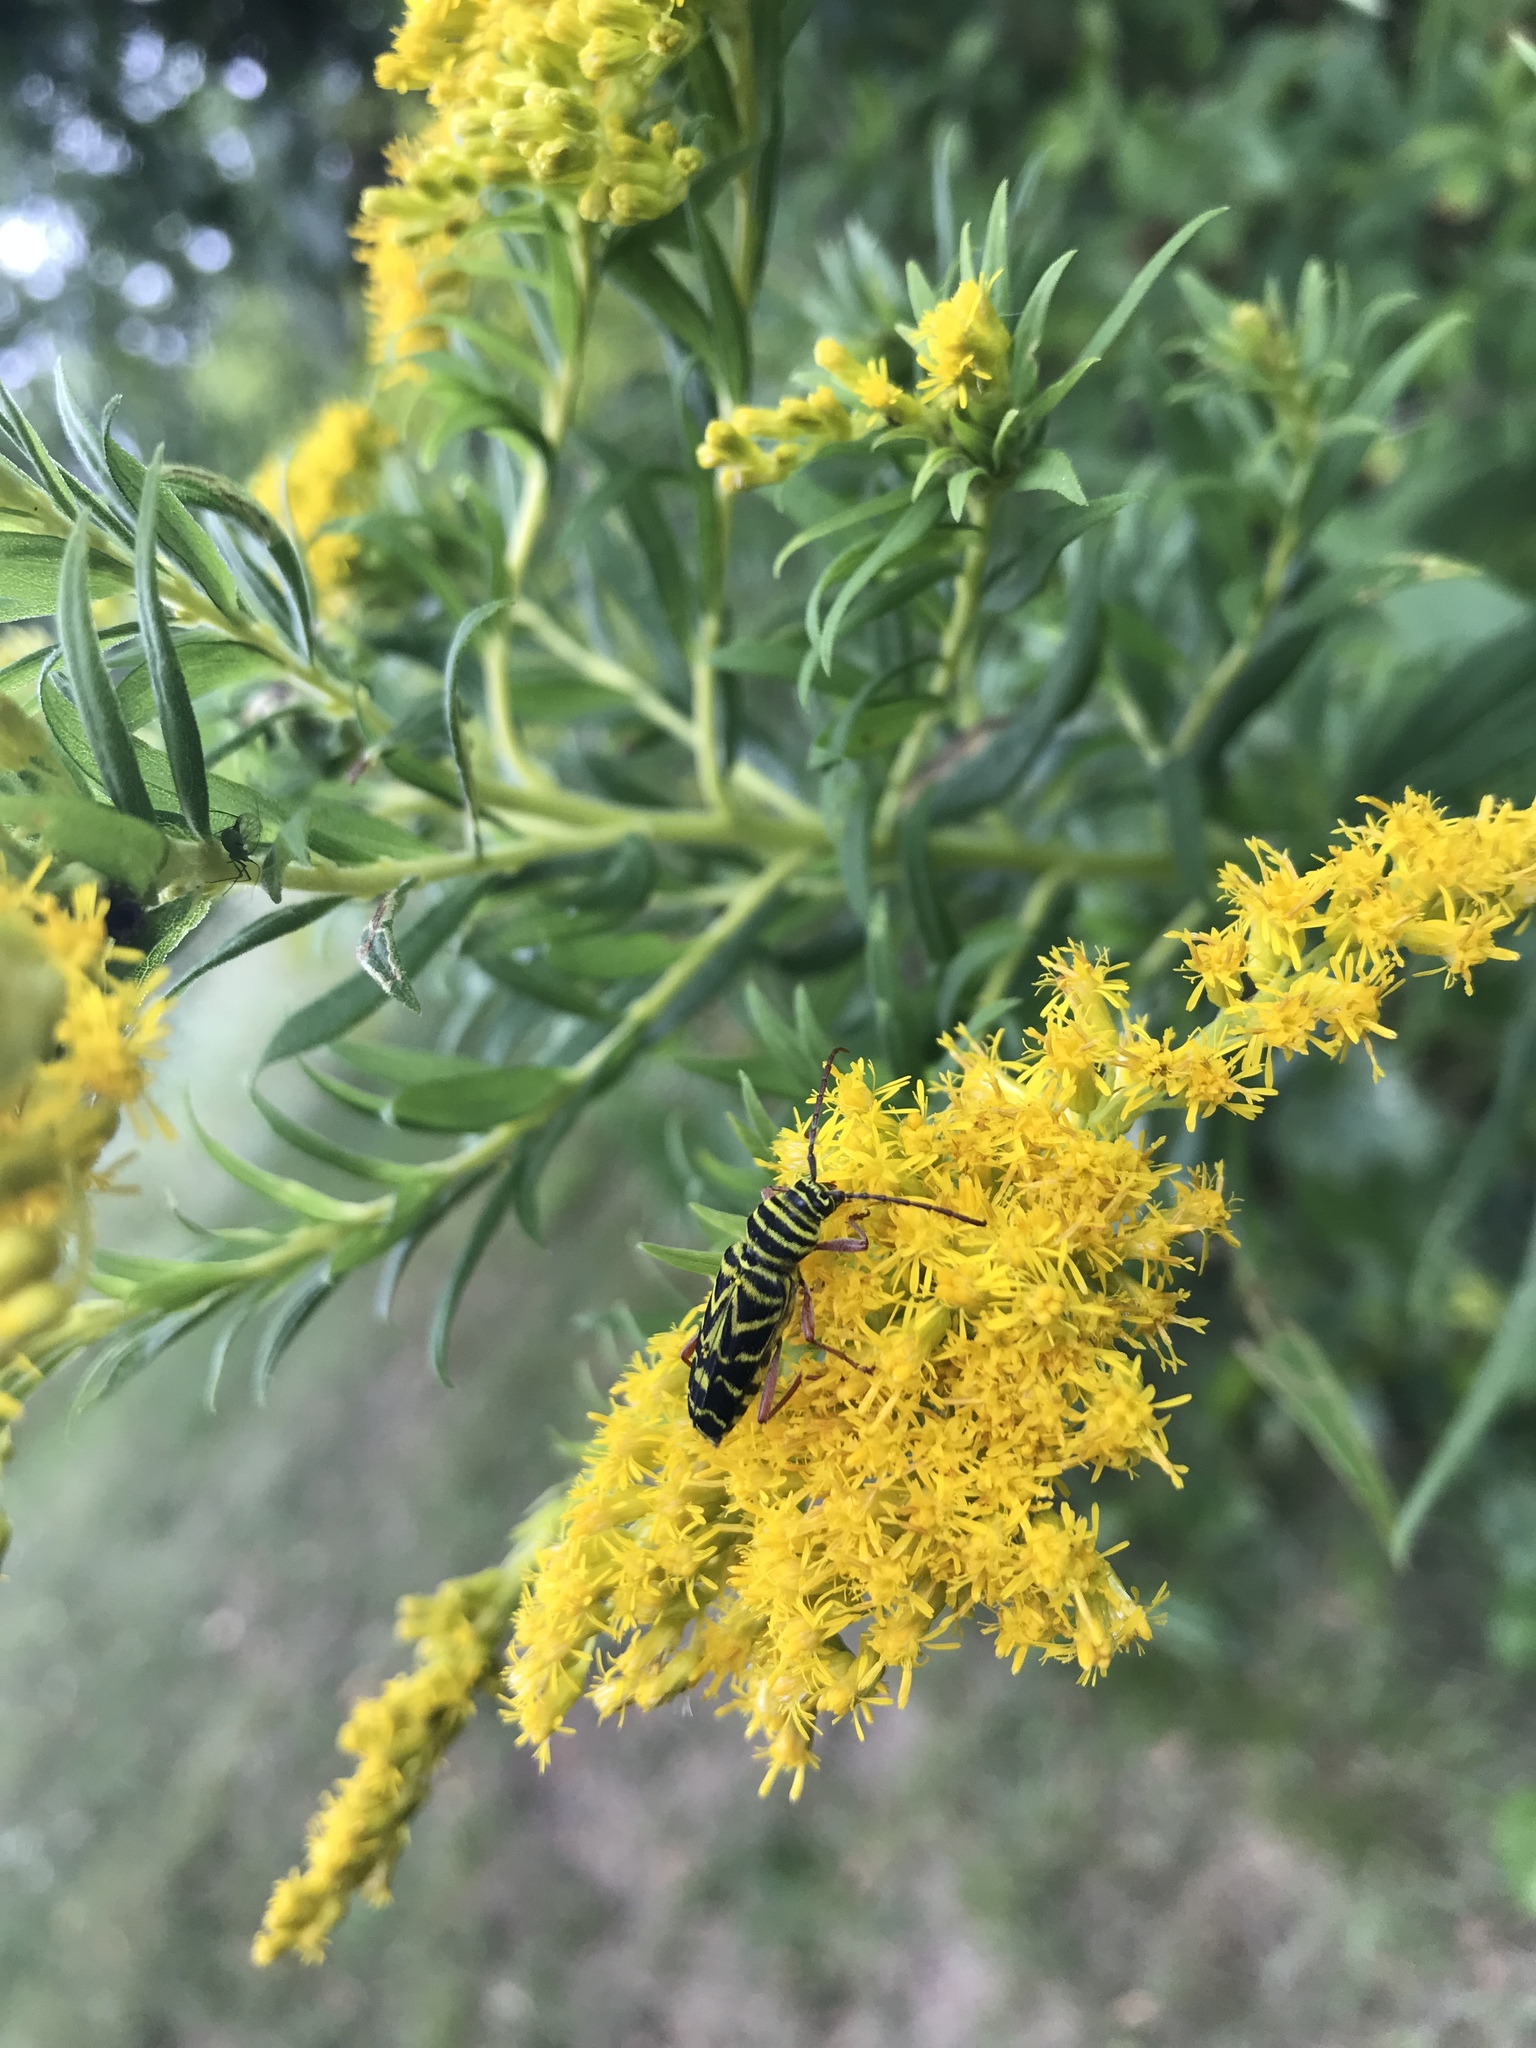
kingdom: Animalia
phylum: Arthropoda
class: Insecta
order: Coleoptera
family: Cerambycidae
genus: Megacyllene
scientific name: Megacyllene robiniae
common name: Locust borer
